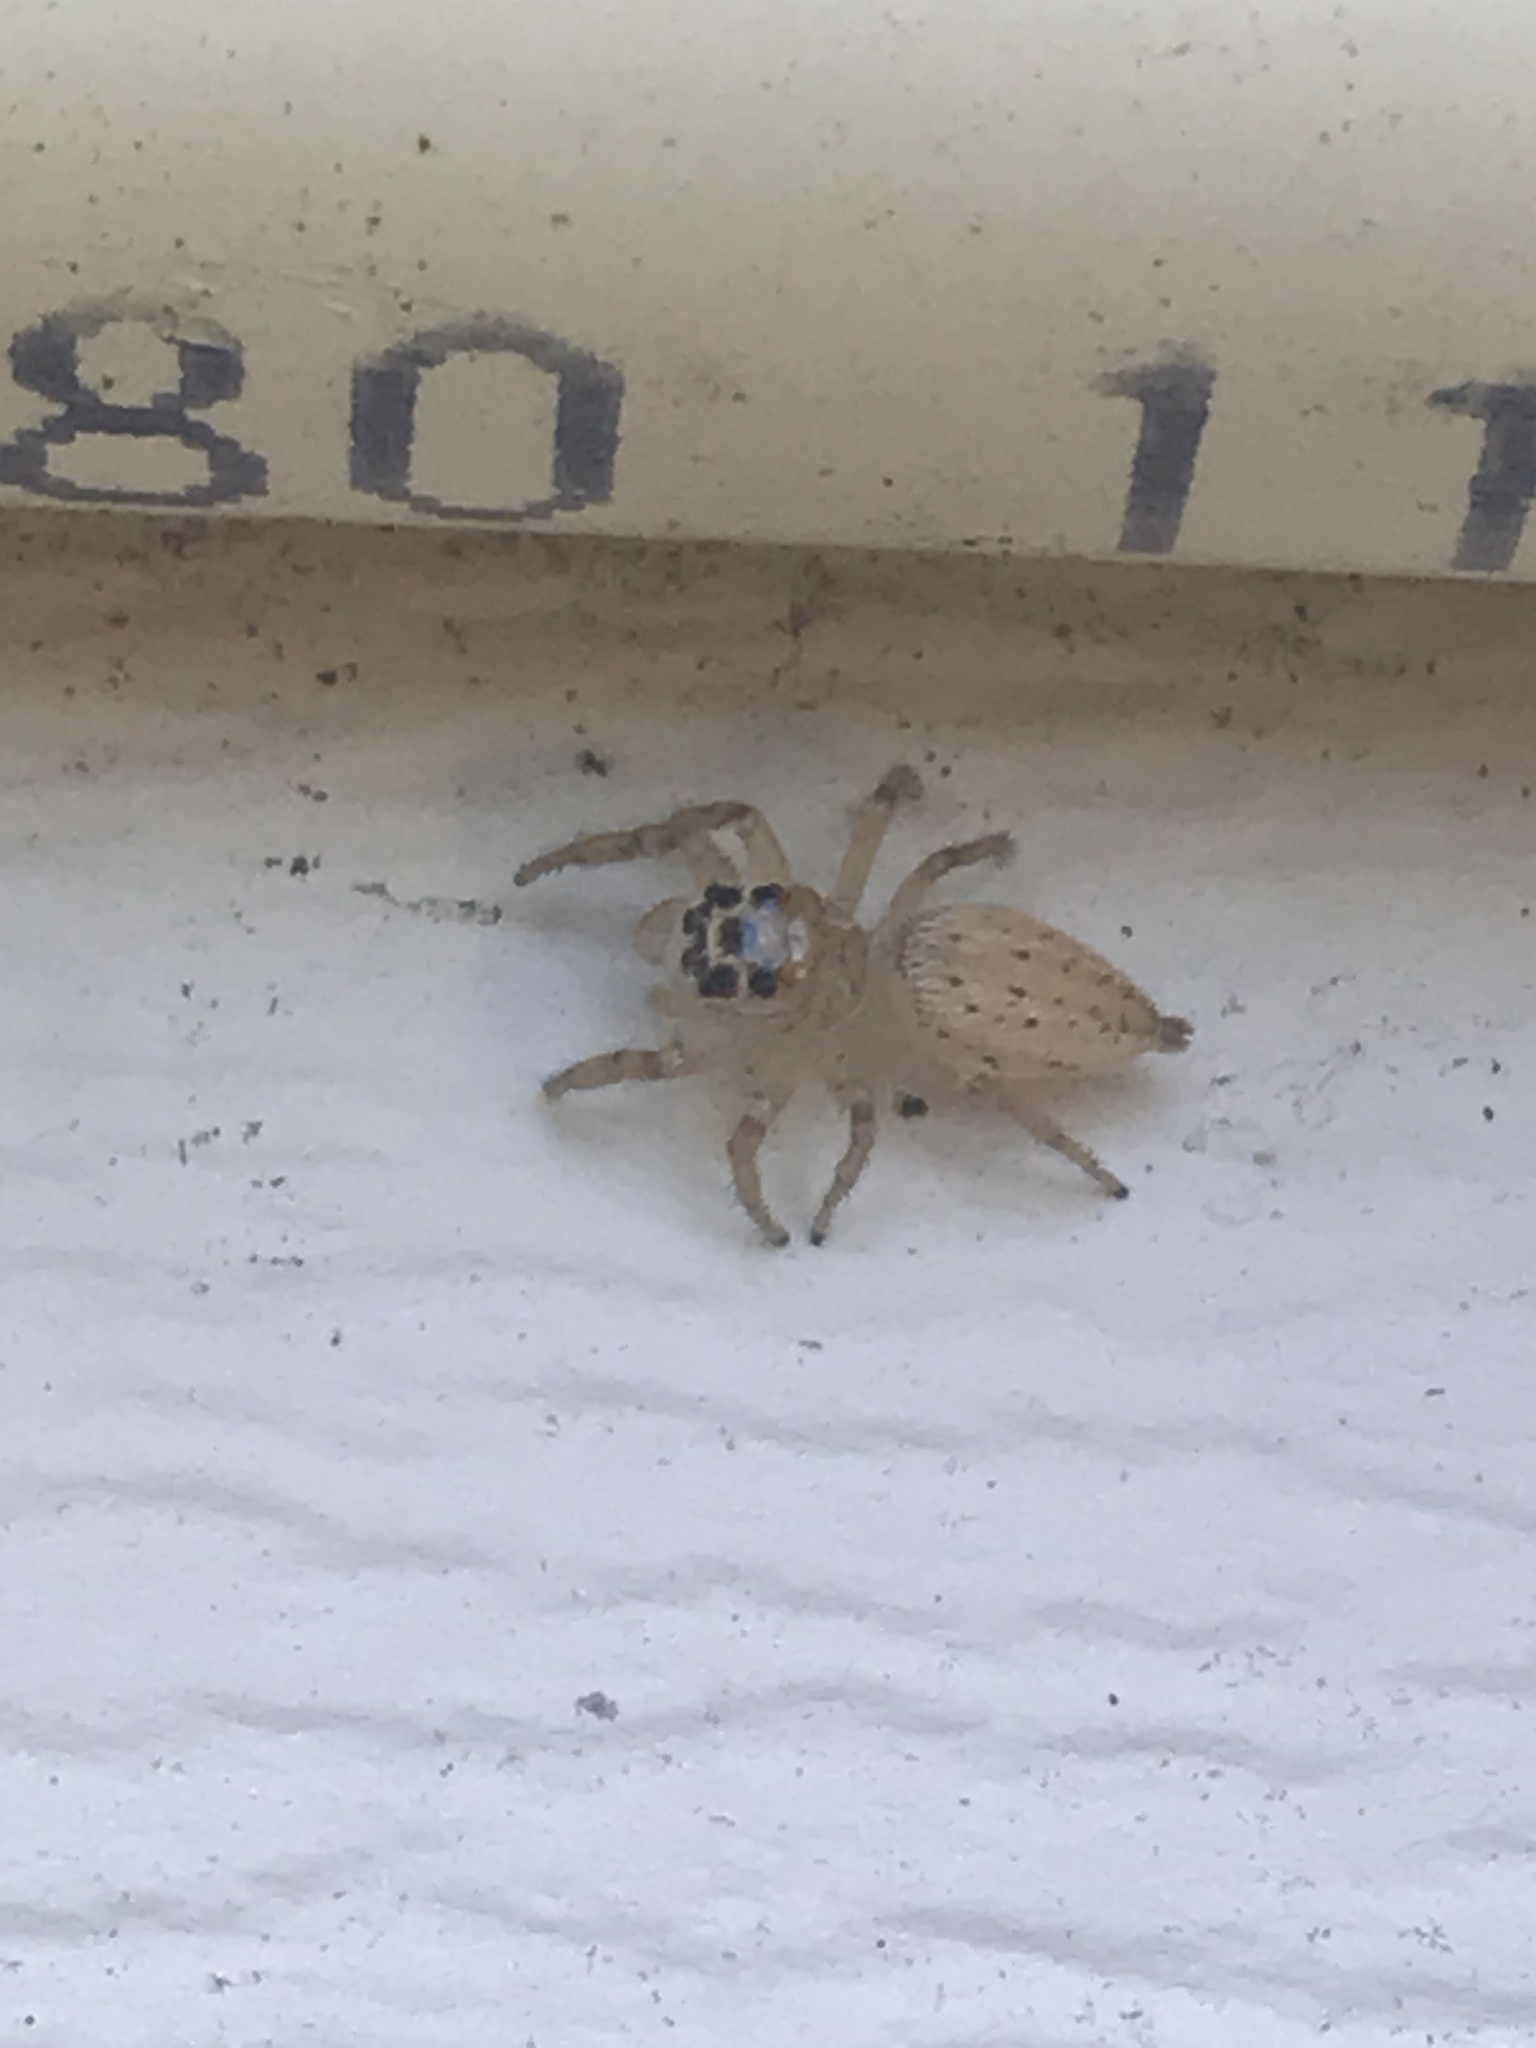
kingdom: Animalia
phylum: Arthropoda
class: Arachnida
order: Araneae
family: Salticidae
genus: Colonus
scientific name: Colonus sylvanus
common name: Jumping spiders
